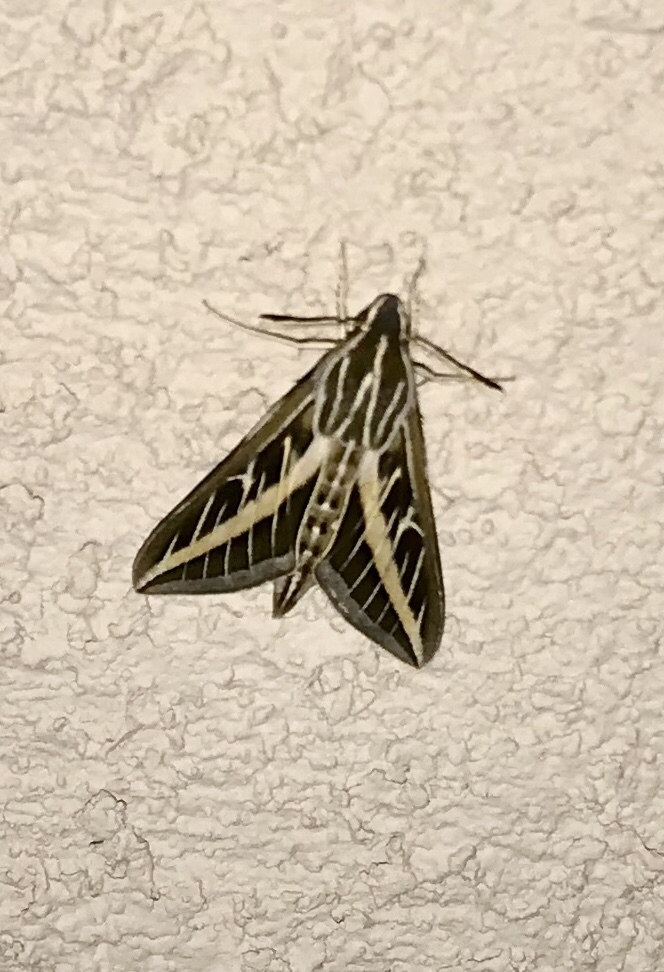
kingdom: Animalia
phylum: Arthropoda
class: Insecta
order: Lepidoptera
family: Sphingidae
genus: Hyles
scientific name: Hyles lineata
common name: White-lined sphinx
